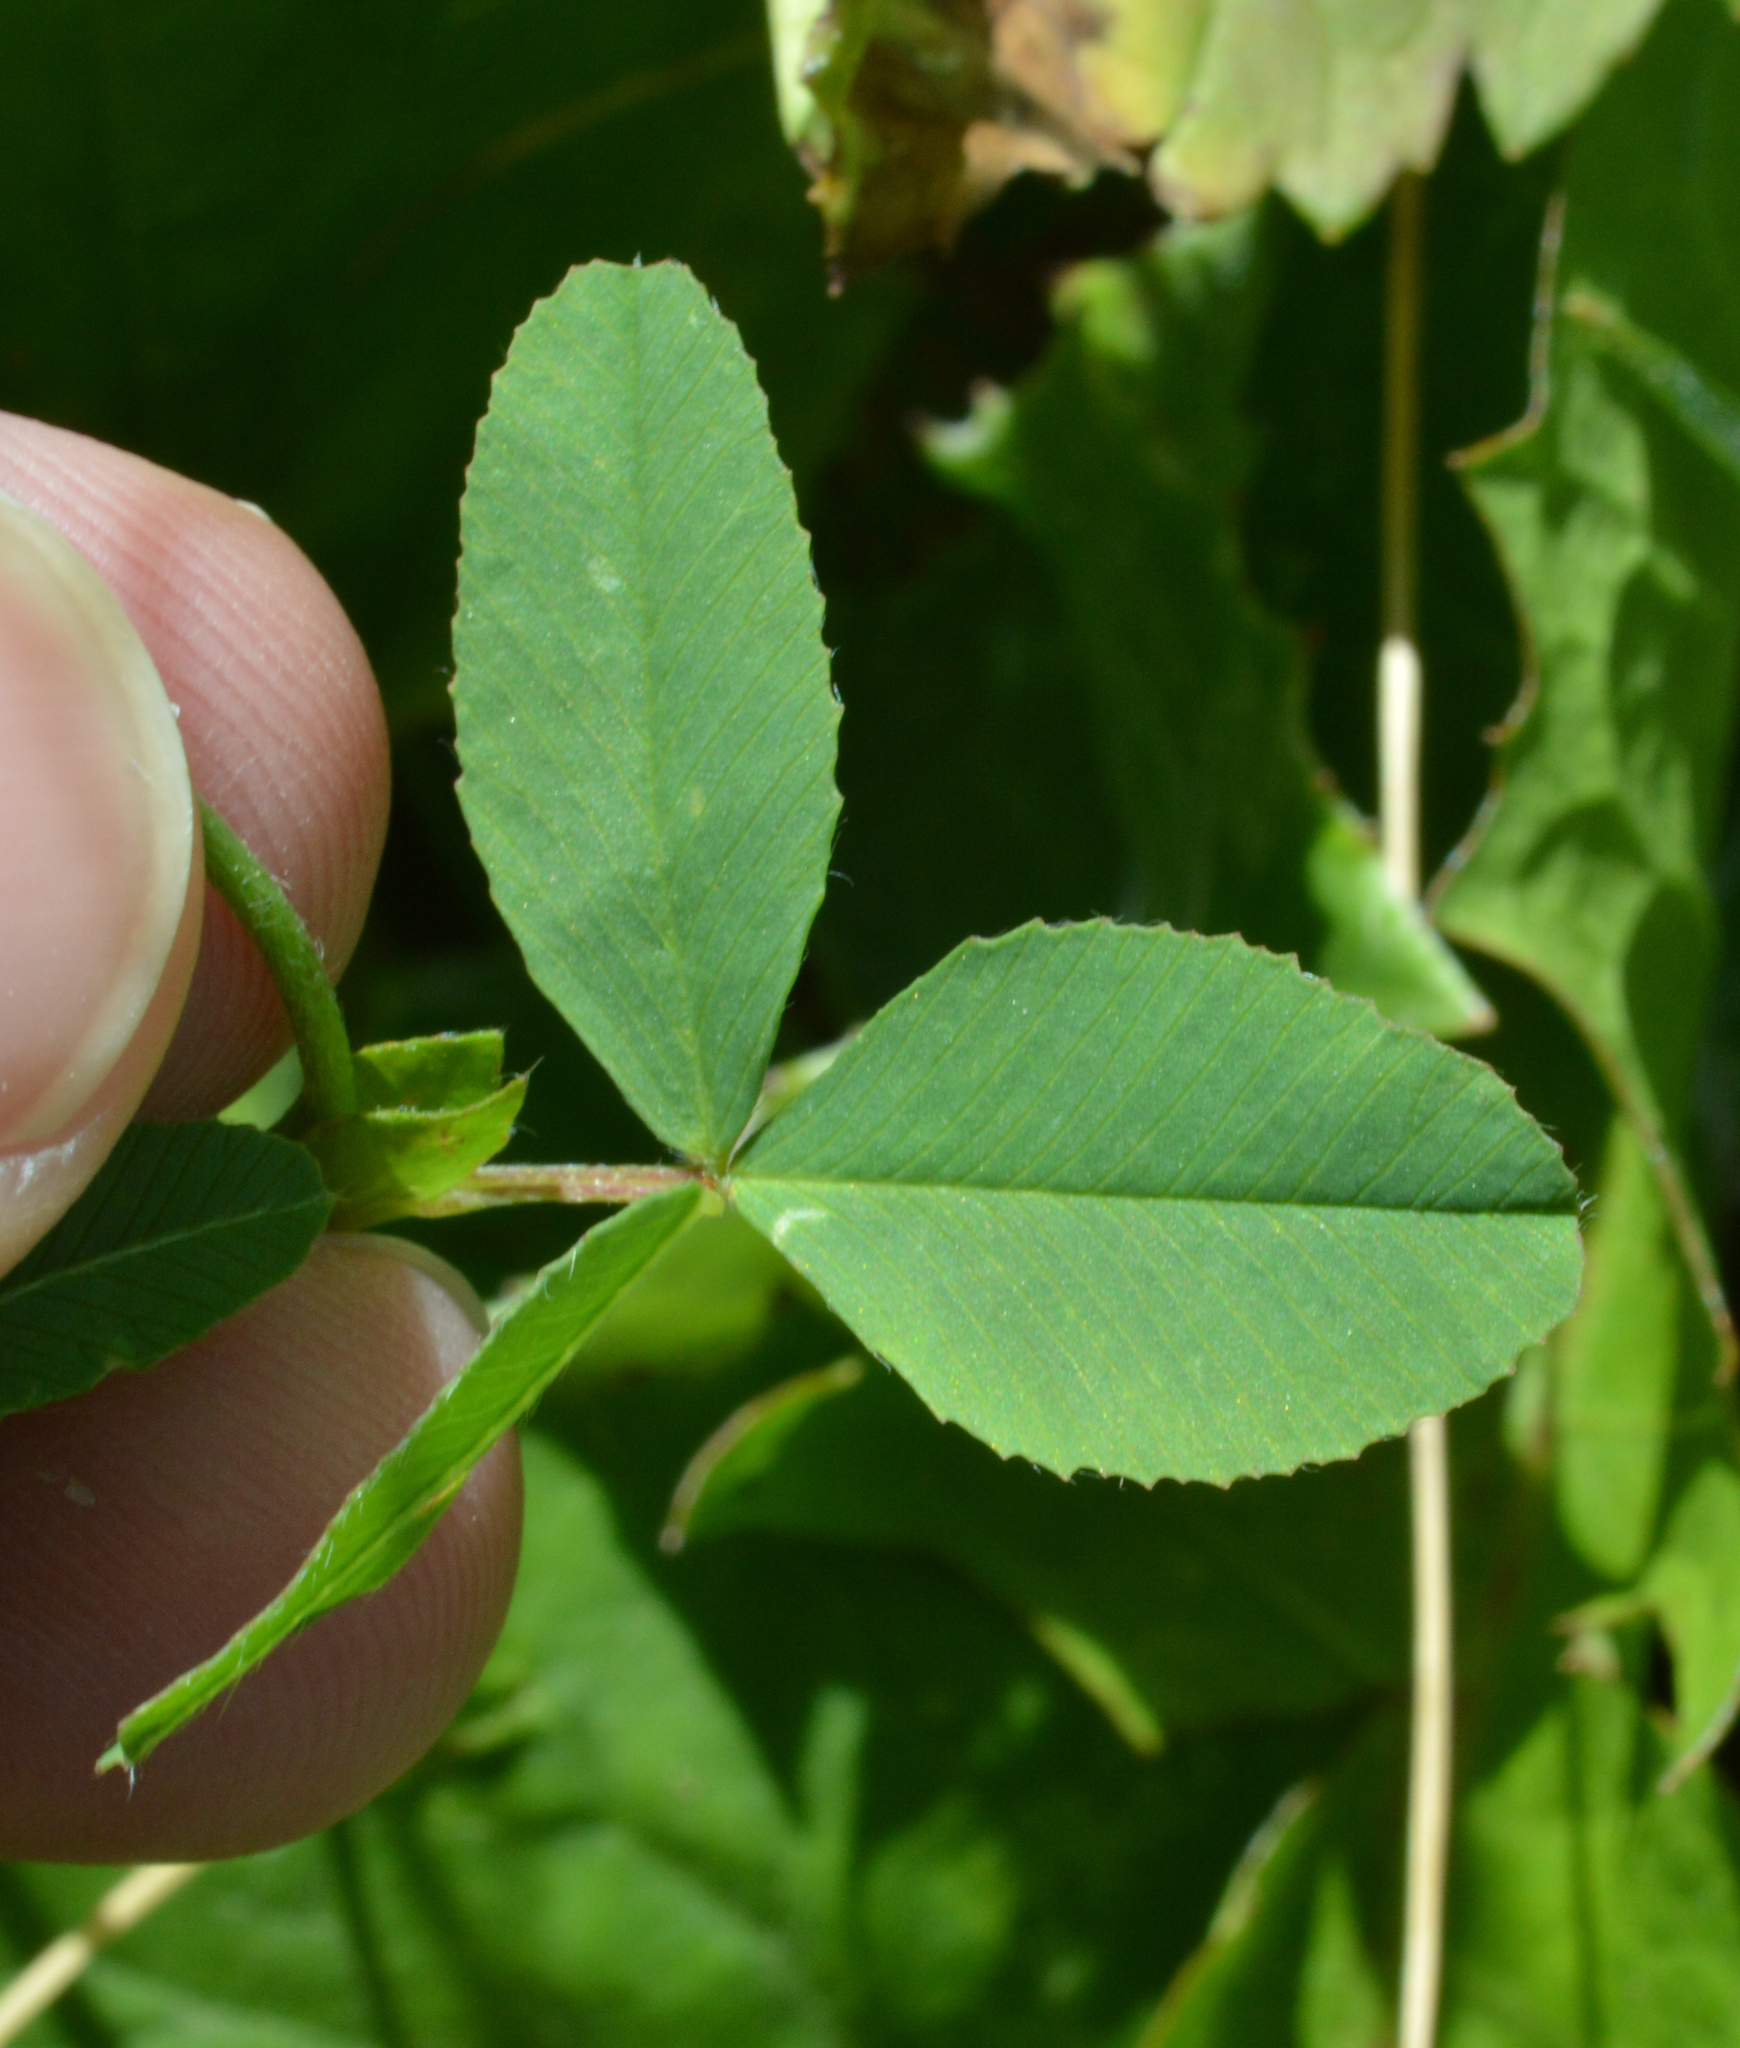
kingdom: Plantae
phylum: Tracheophyta
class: Magnoliopsida
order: Fabales
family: Fabaceae
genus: Trifolium
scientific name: Trifolium badium
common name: Brown clover
